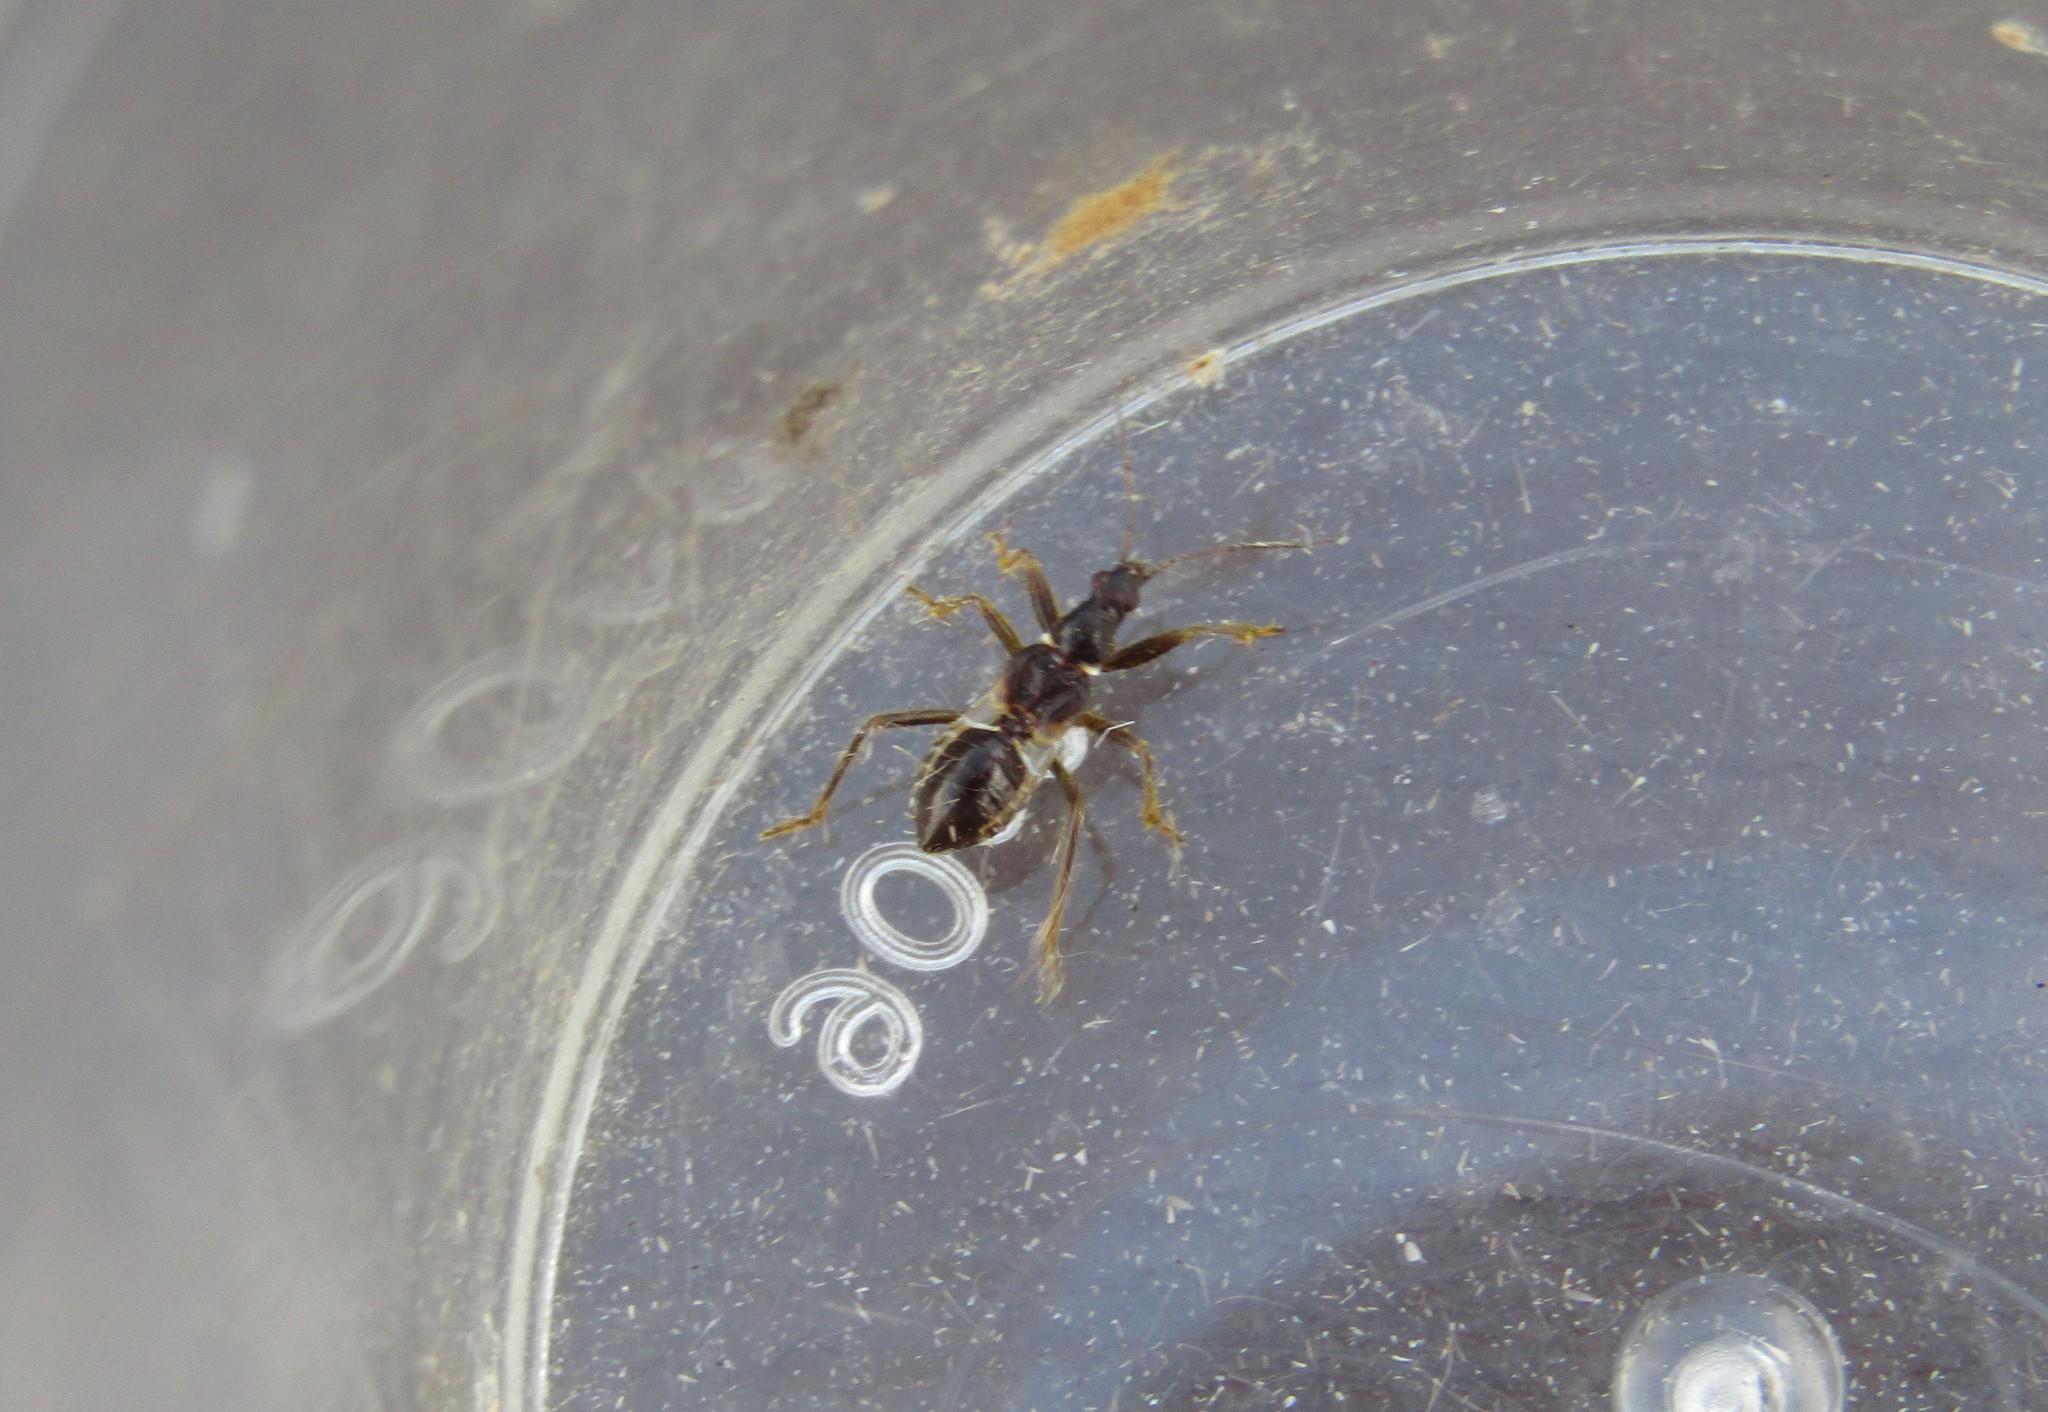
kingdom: Animalia
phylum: Arthropoda
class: Insecta
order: Hemiptera
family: Nabidae
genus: Himacerus
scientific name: Himacerus mirmicoides
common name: Ant damsel bug
